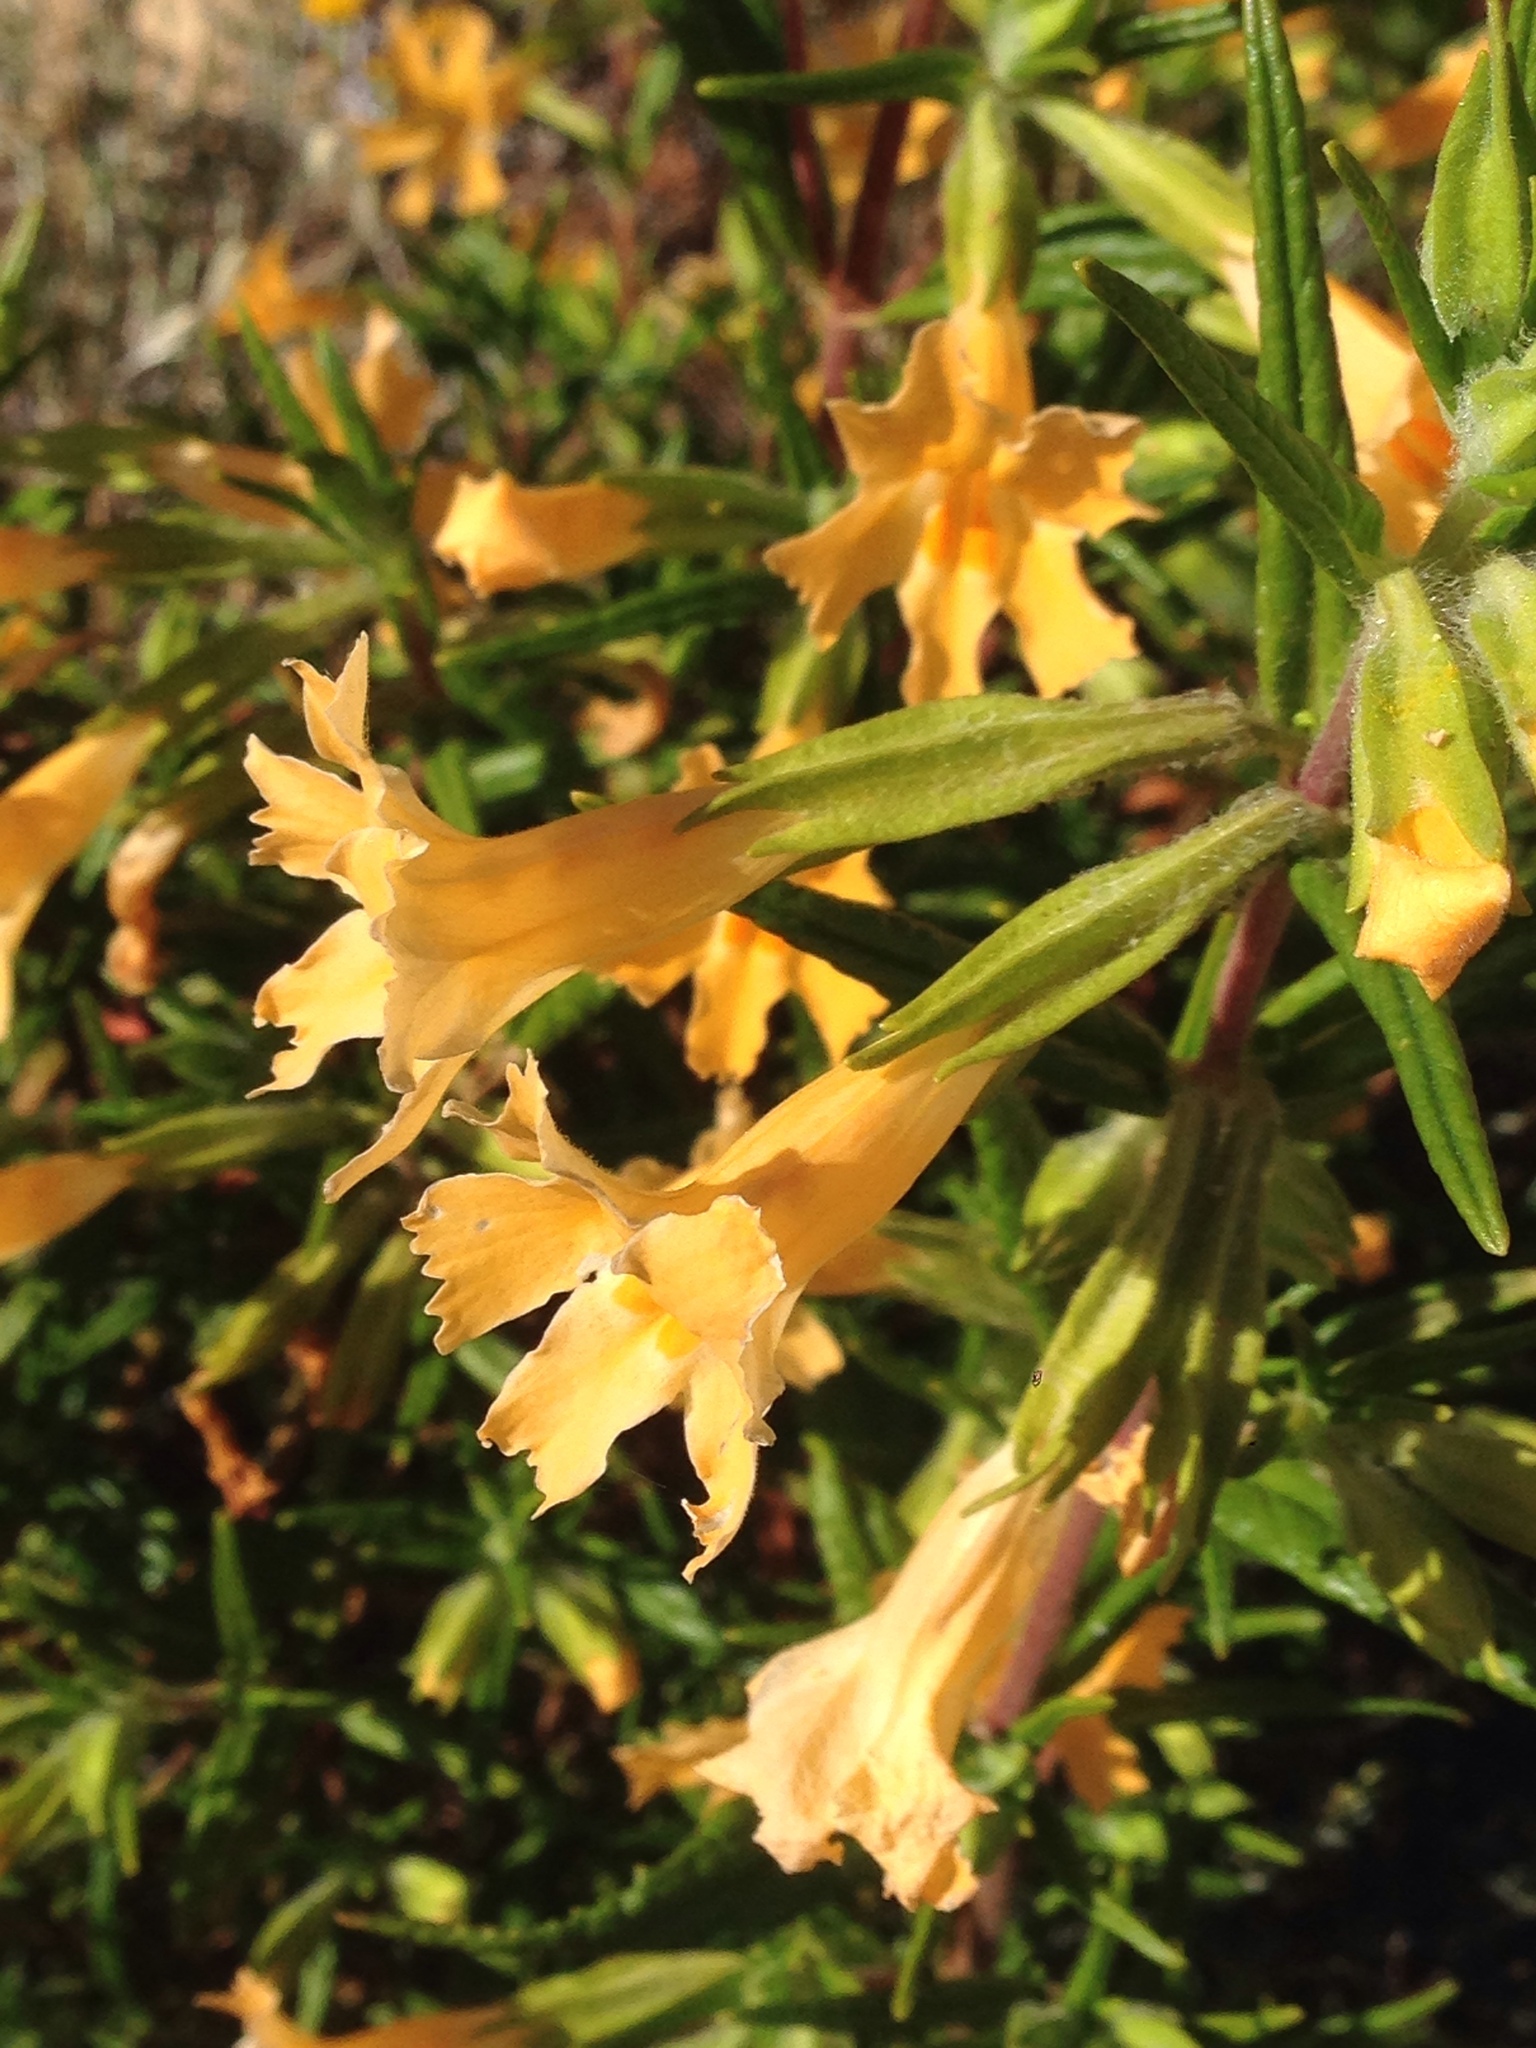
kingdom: Plantae
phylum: Tracheophyta
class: Magnoliopsida
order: Lamiales
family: Phrymaceae
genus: Diplacus
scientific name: Diplacus longiflorus
